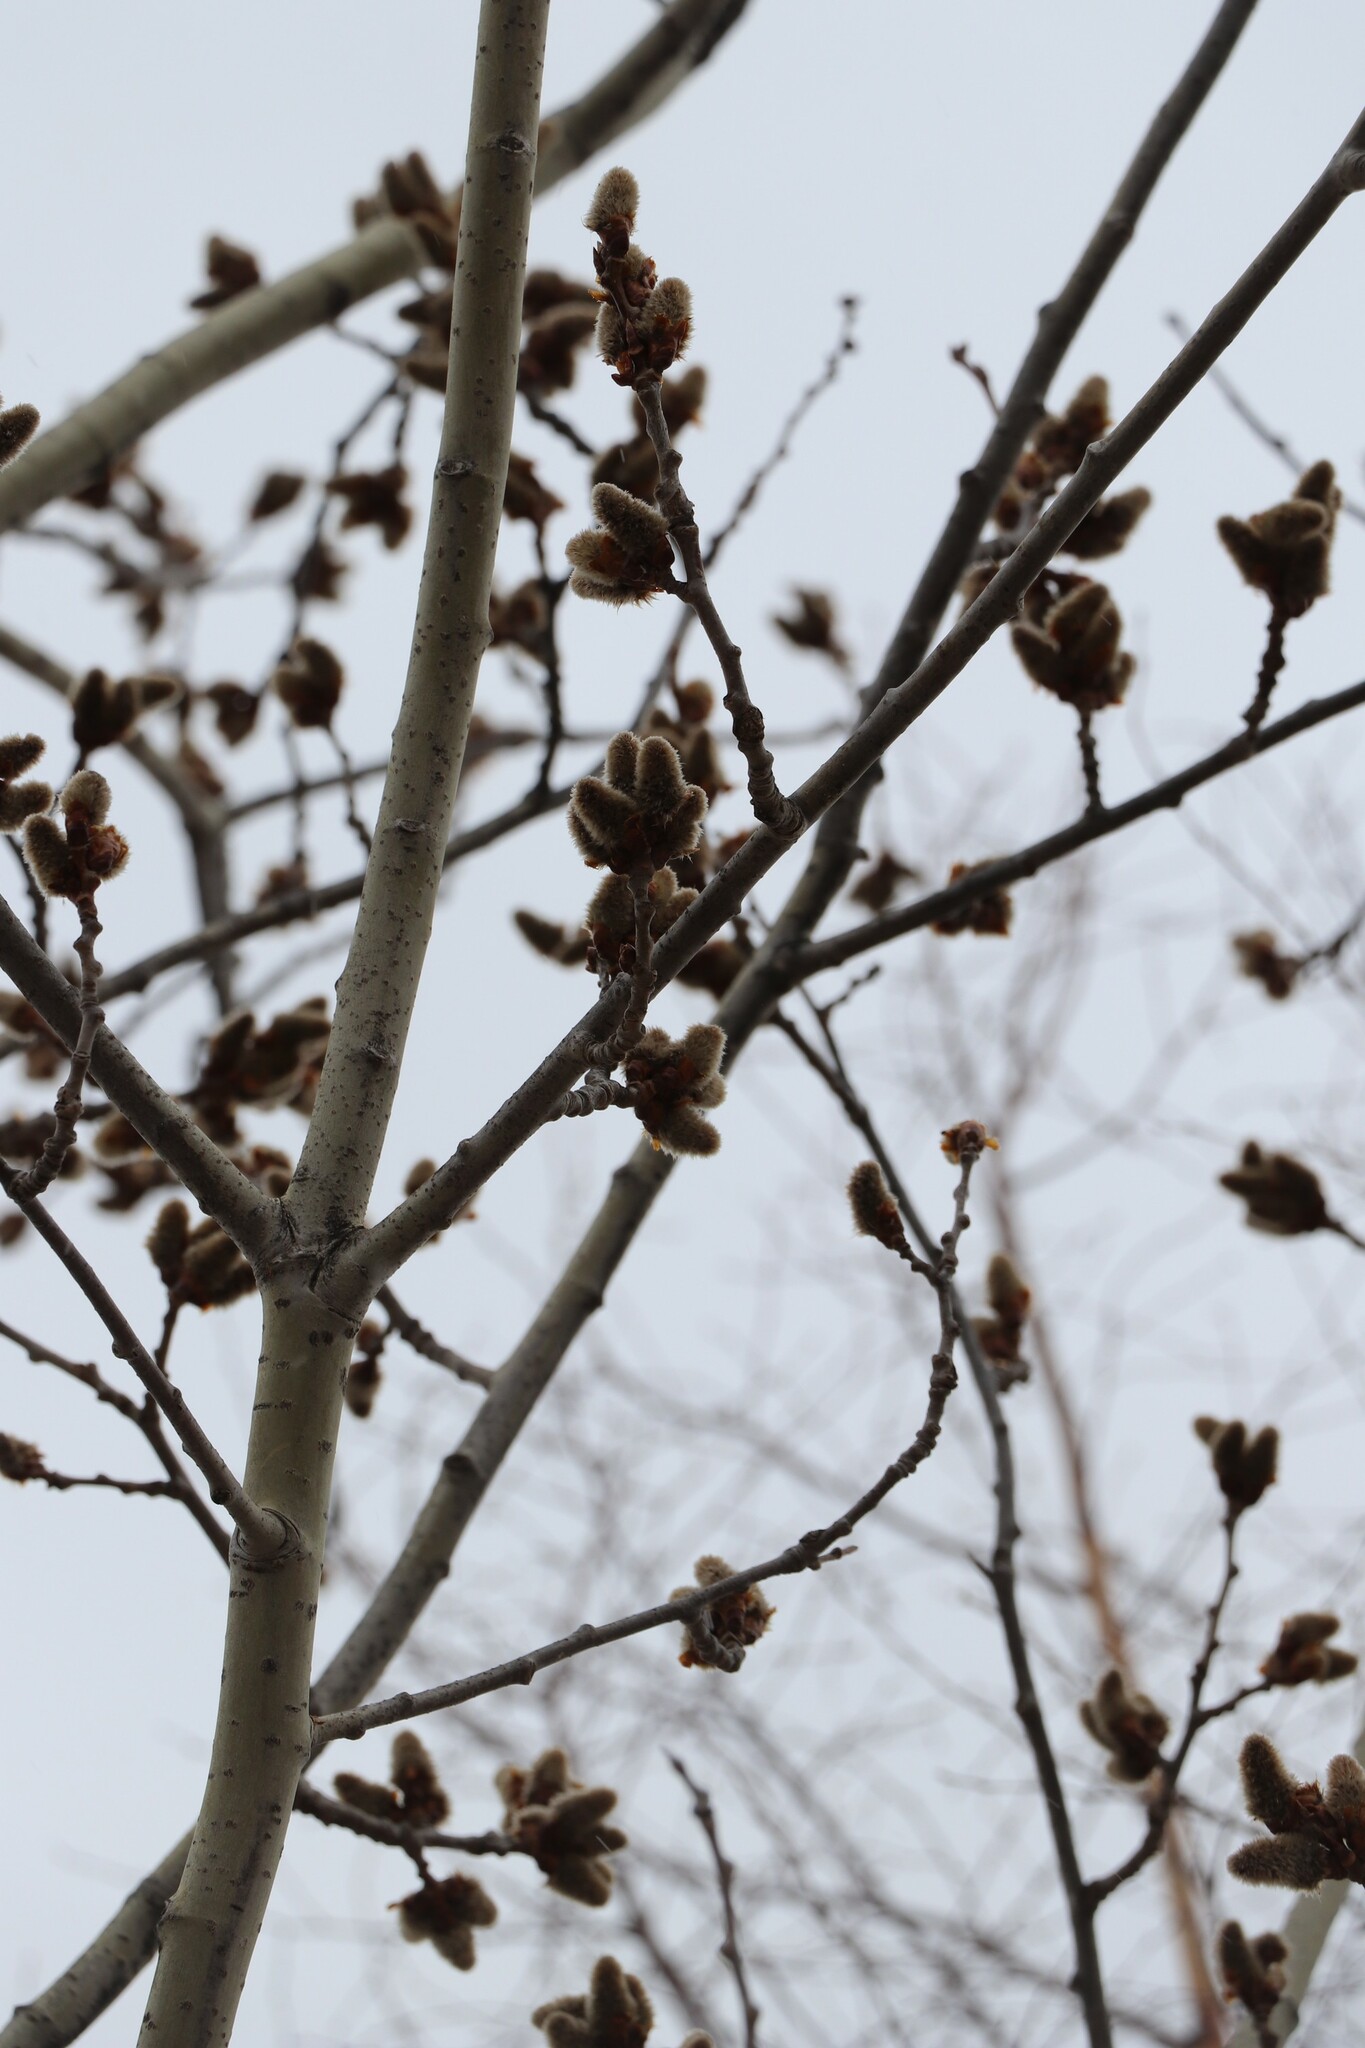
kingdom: Plantae
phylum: Tracheophyta
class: Magnoliopsida
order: Malpighiales
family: Salicaceae
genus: Populus
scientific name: Populus tremula
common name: European aspen
